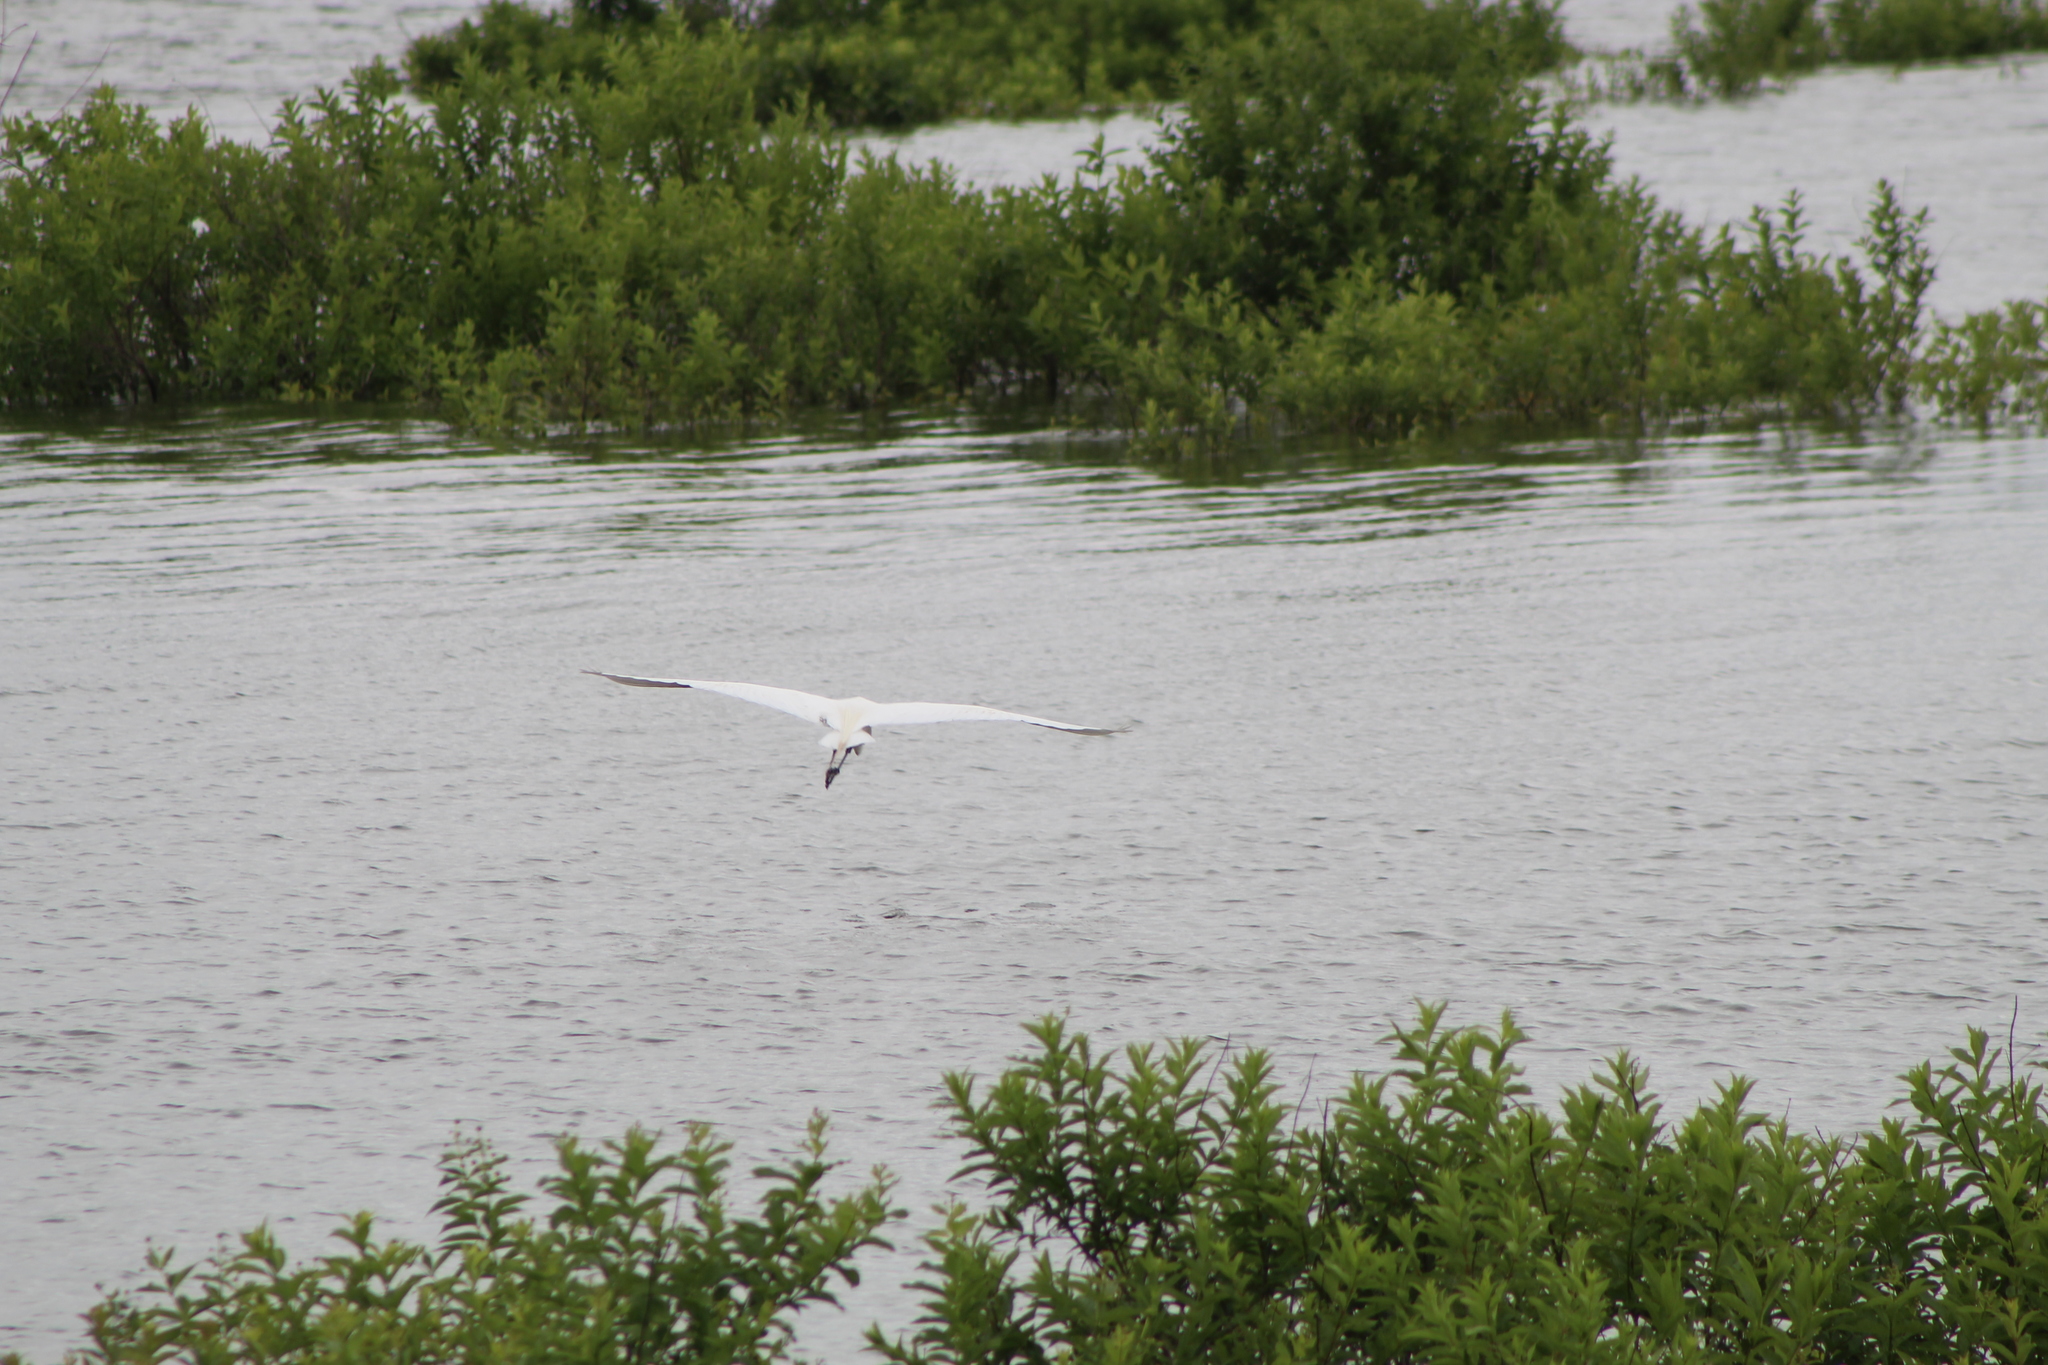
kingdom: Animalia
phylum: Chordata
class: Aves
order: Pelecaniformes
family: Ardeidae
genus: Ardea
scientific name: Ardea alba
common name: Great egret
